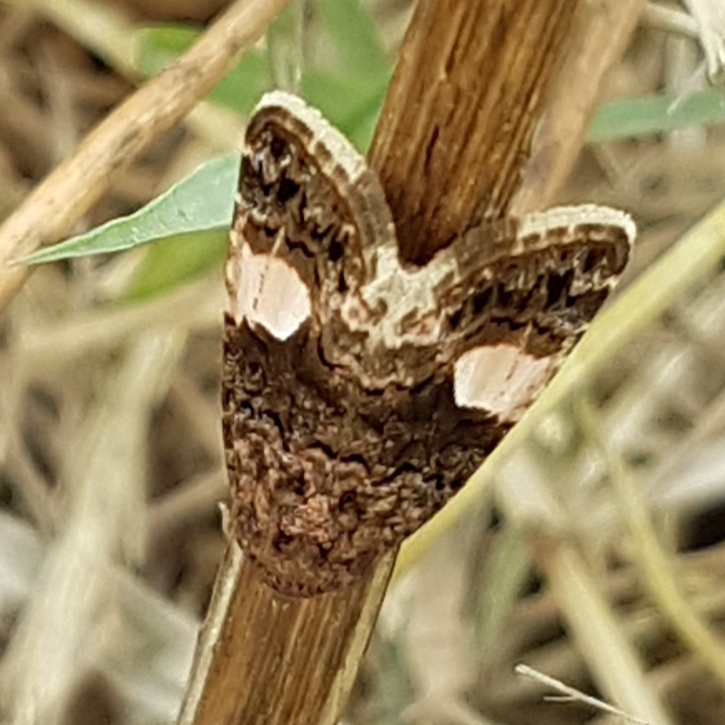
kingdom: Animalia
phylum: Arthropoda
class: Insecta
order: Lepidoptera
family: Erebidae
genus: Tyta
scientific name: Tyta luctuosa
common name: Four-spotted
